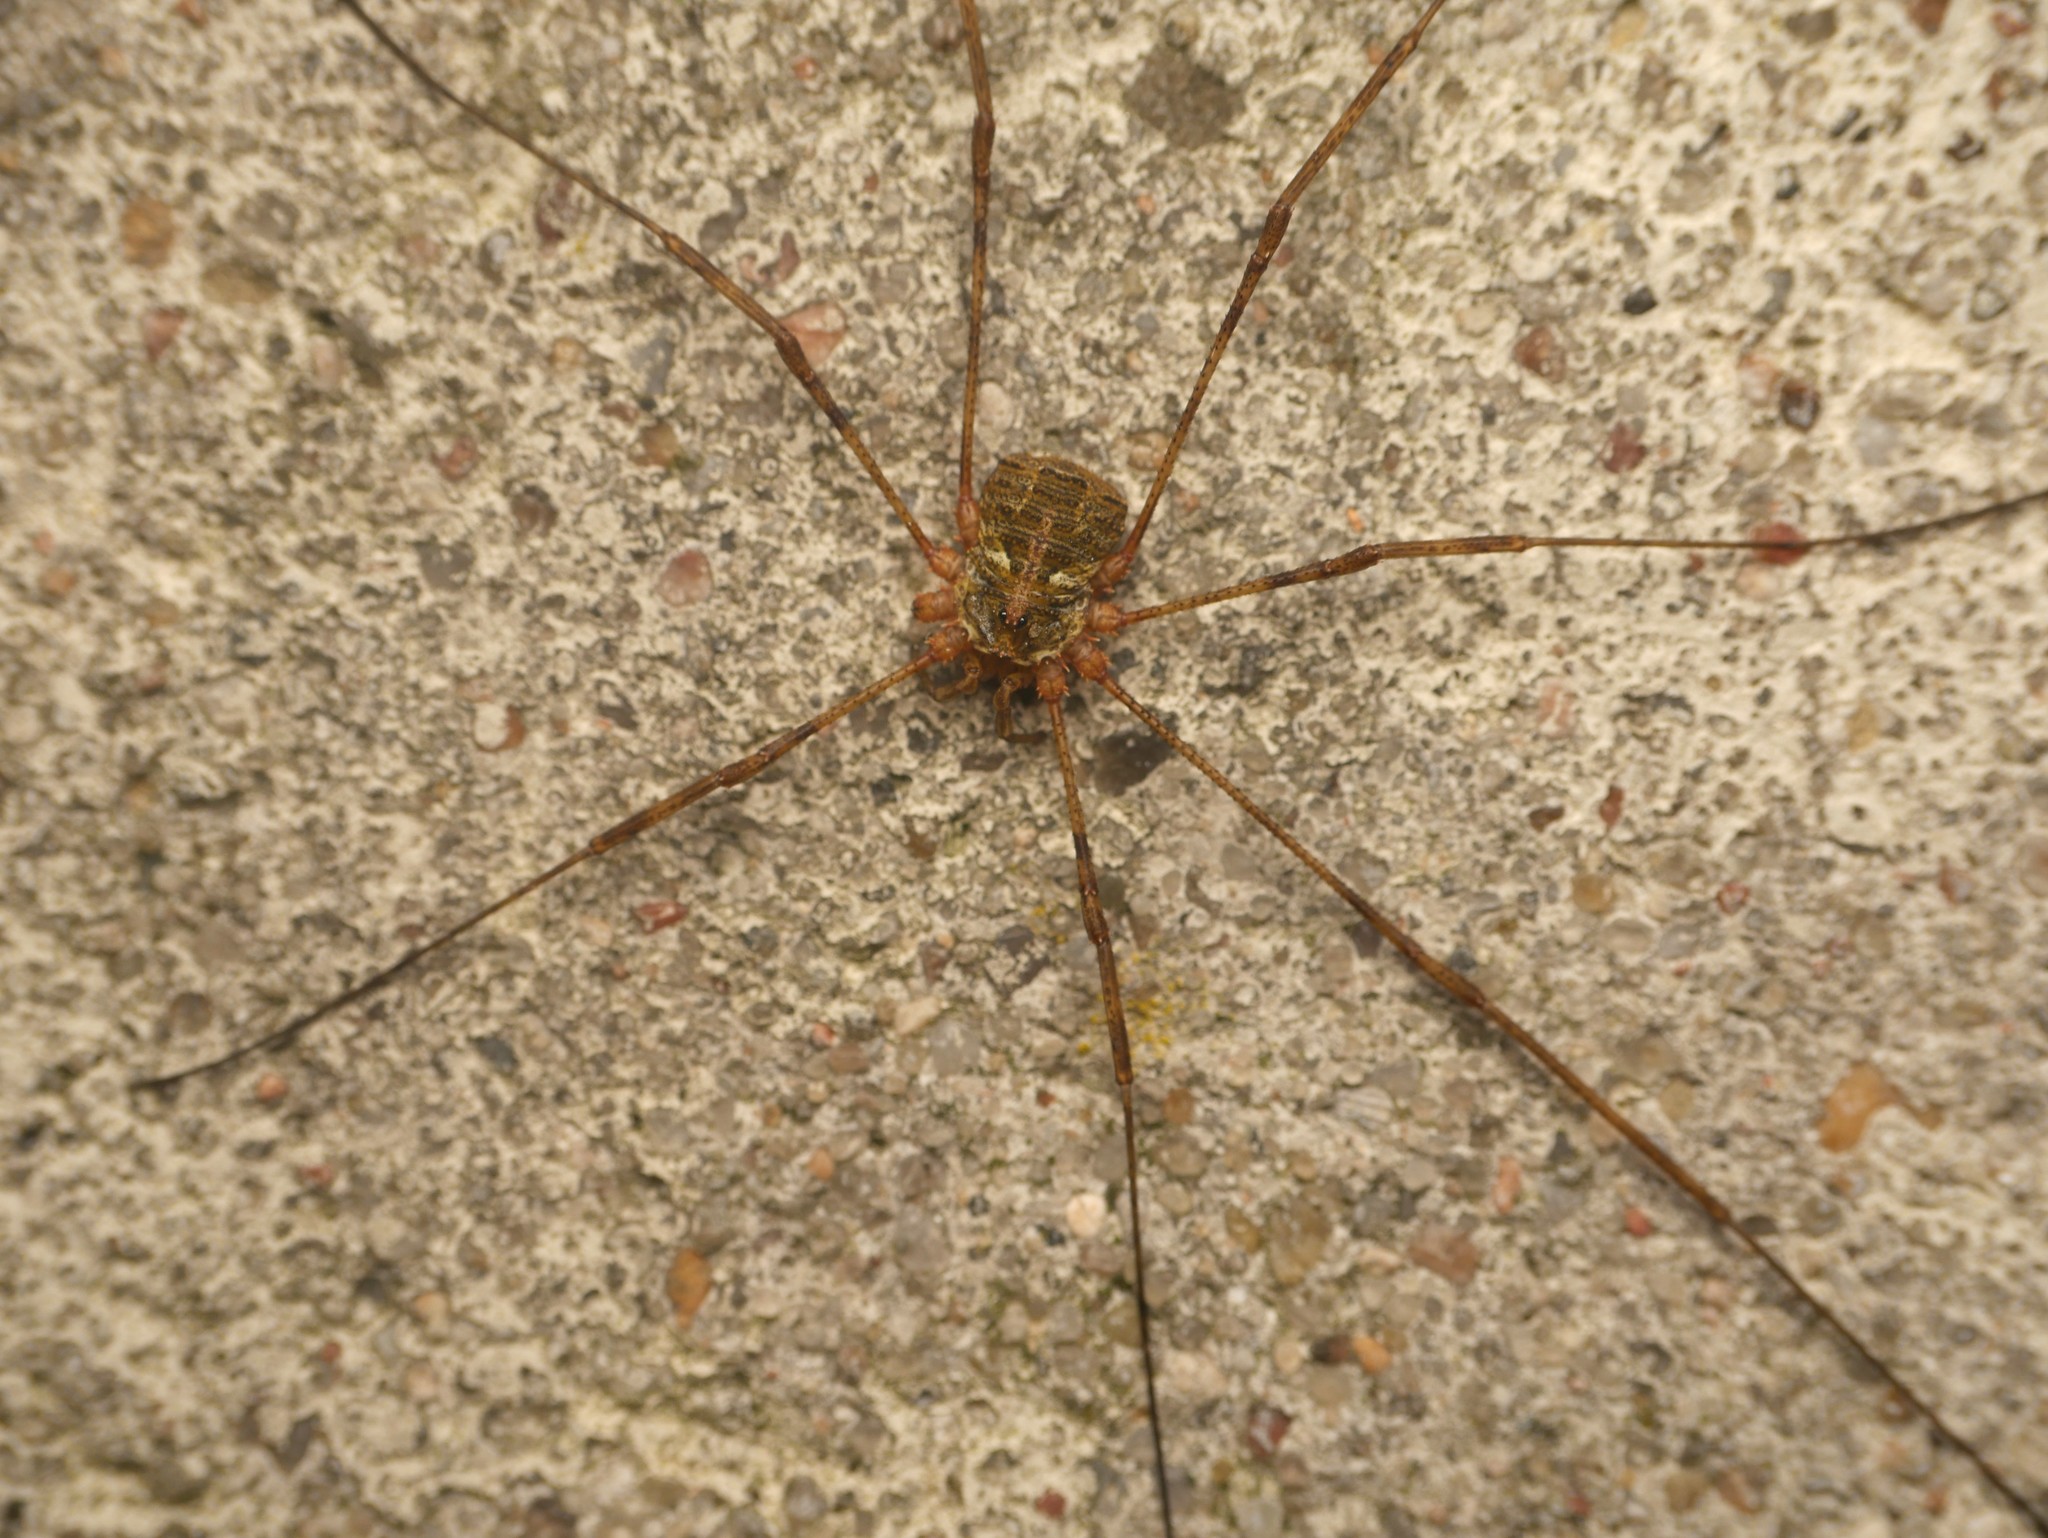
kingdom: Animalia
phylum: Arthropoda
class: Arachnida
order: Opiliones
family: Phalangiidae
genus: Lacinius
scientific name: Lacinius dentiger
